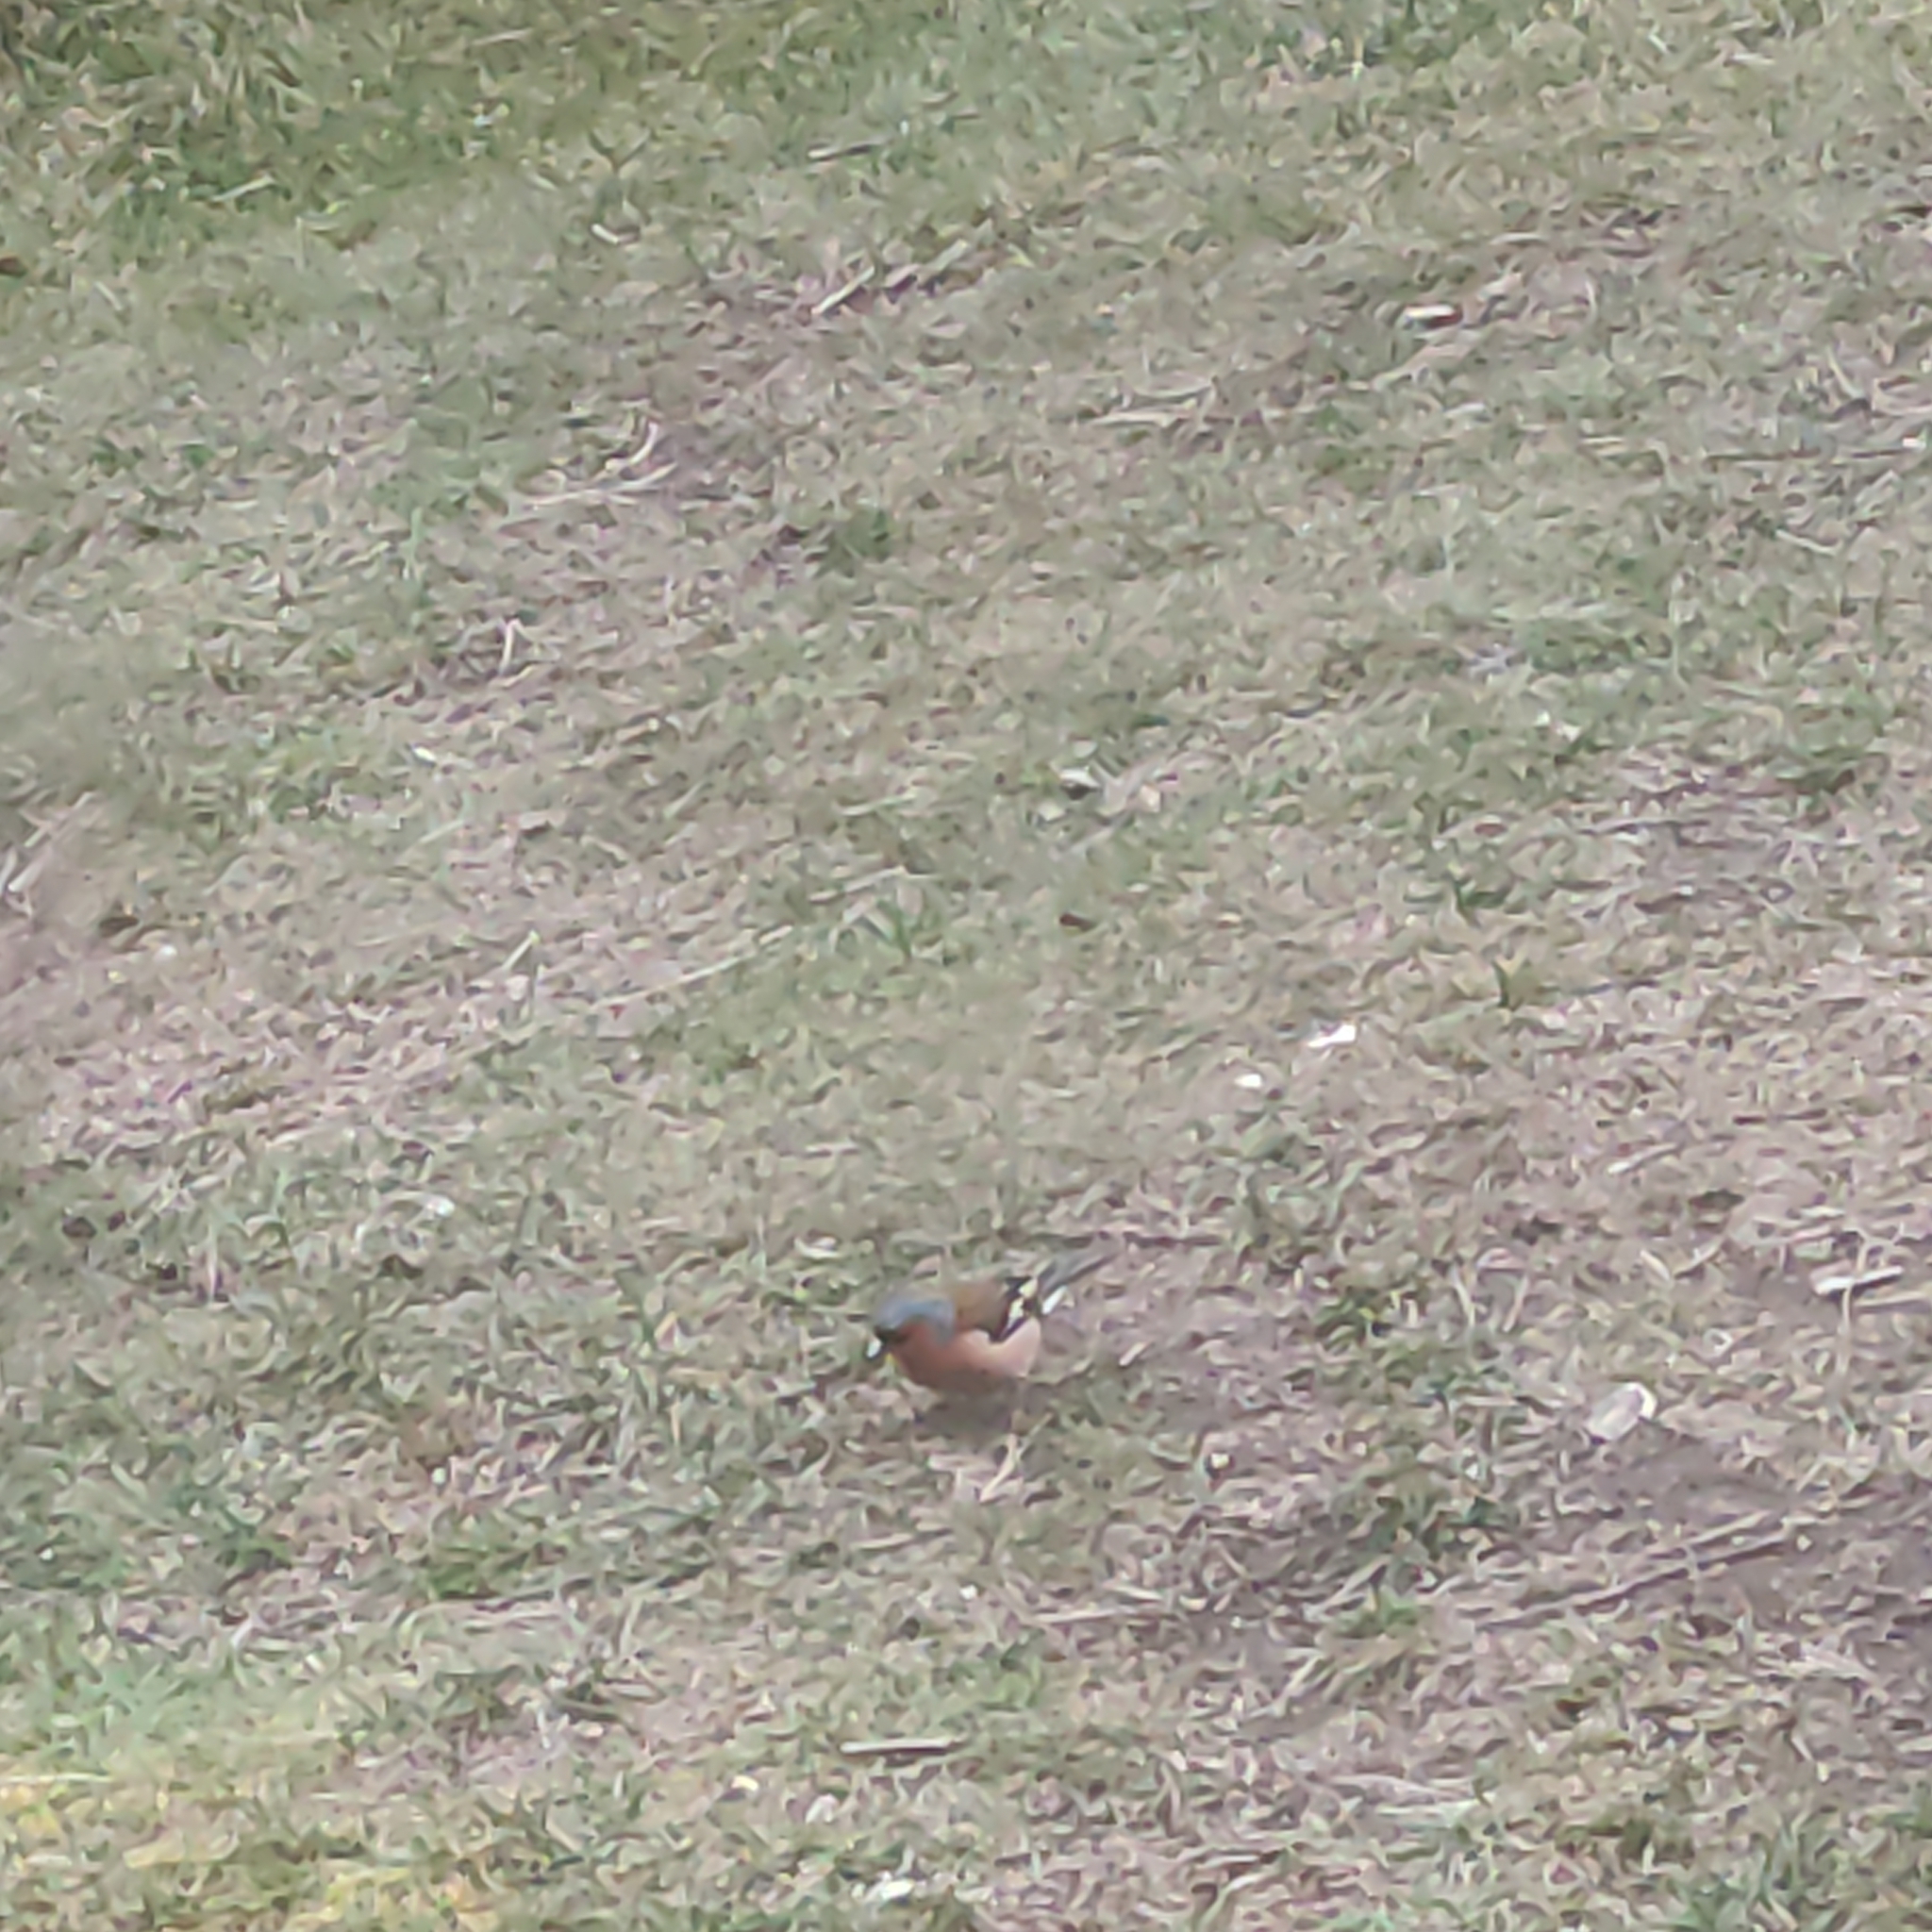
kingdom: Animalia
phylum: Chordata
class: Aves
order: Passeriformes
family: Fringillidae
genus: Fringilla
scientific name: Fringilla coelebs
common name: Common chaffinch
